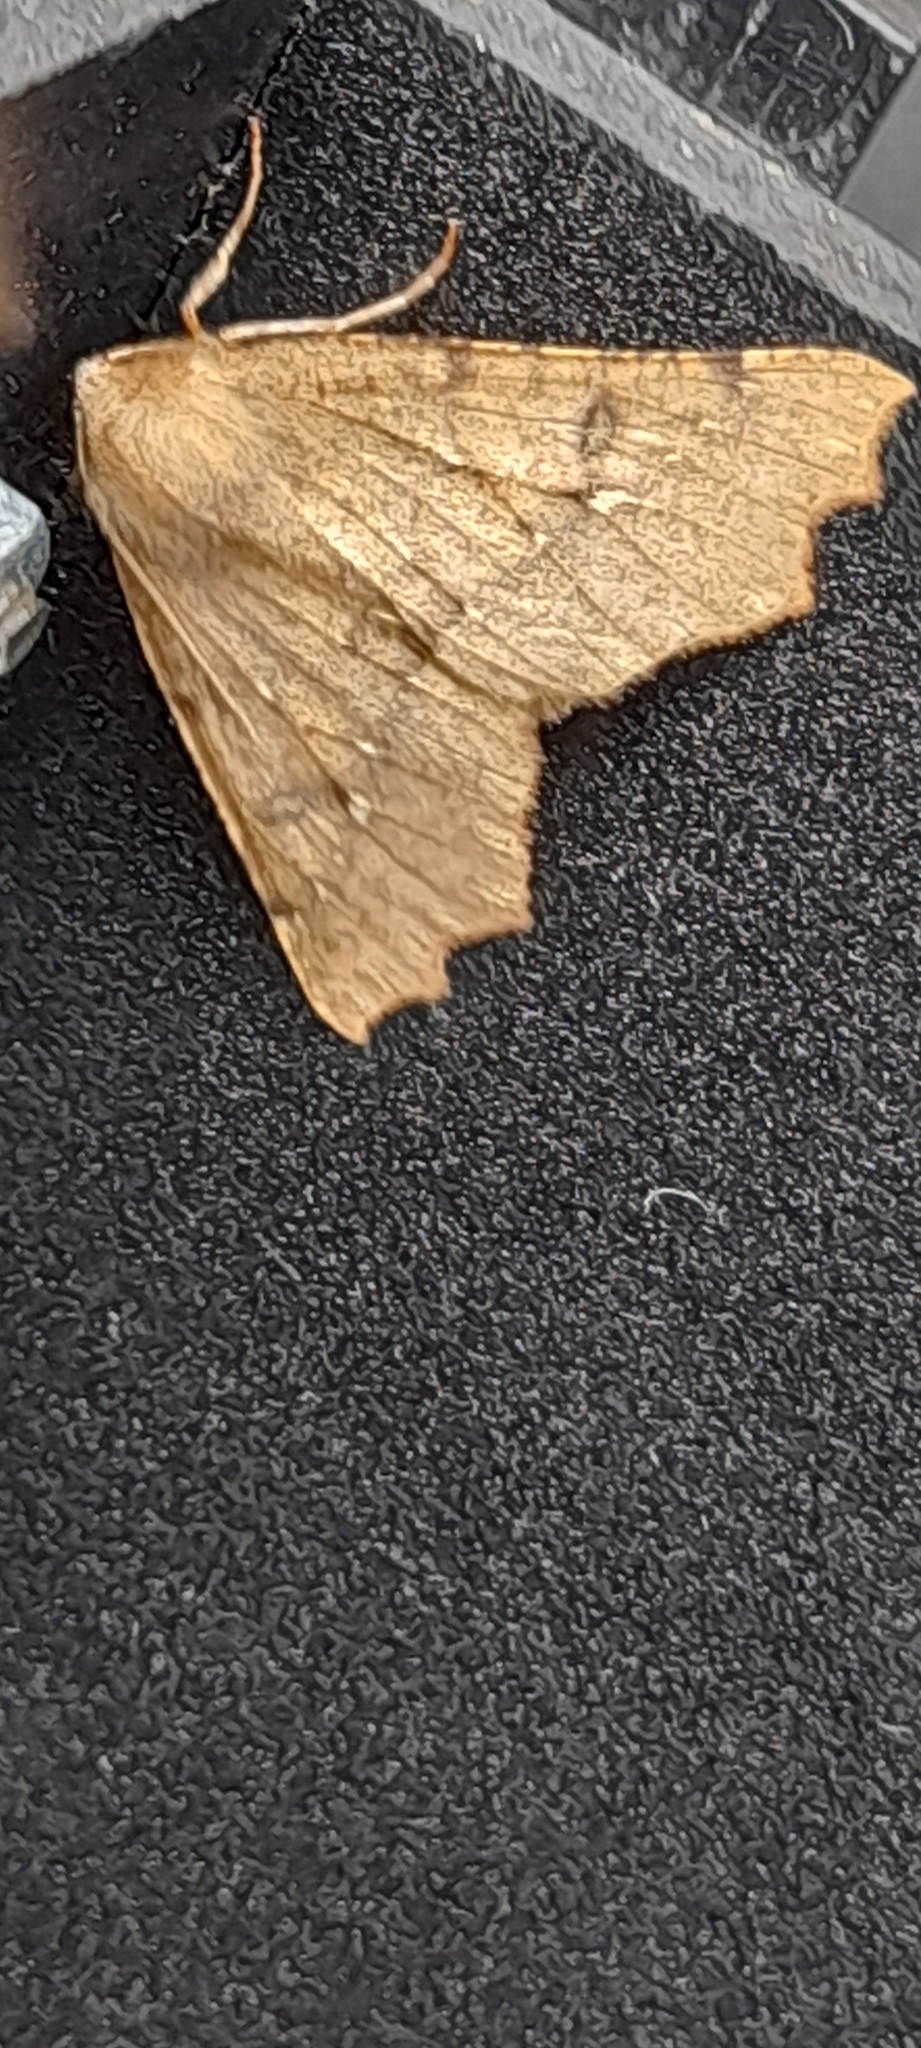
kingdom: Animalia
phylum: Arthropoda
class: Insecta
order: Lepidoptera
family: Geometridae
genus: Odontopera
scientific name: Odontopera bidentata
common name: Scalloped hazel
